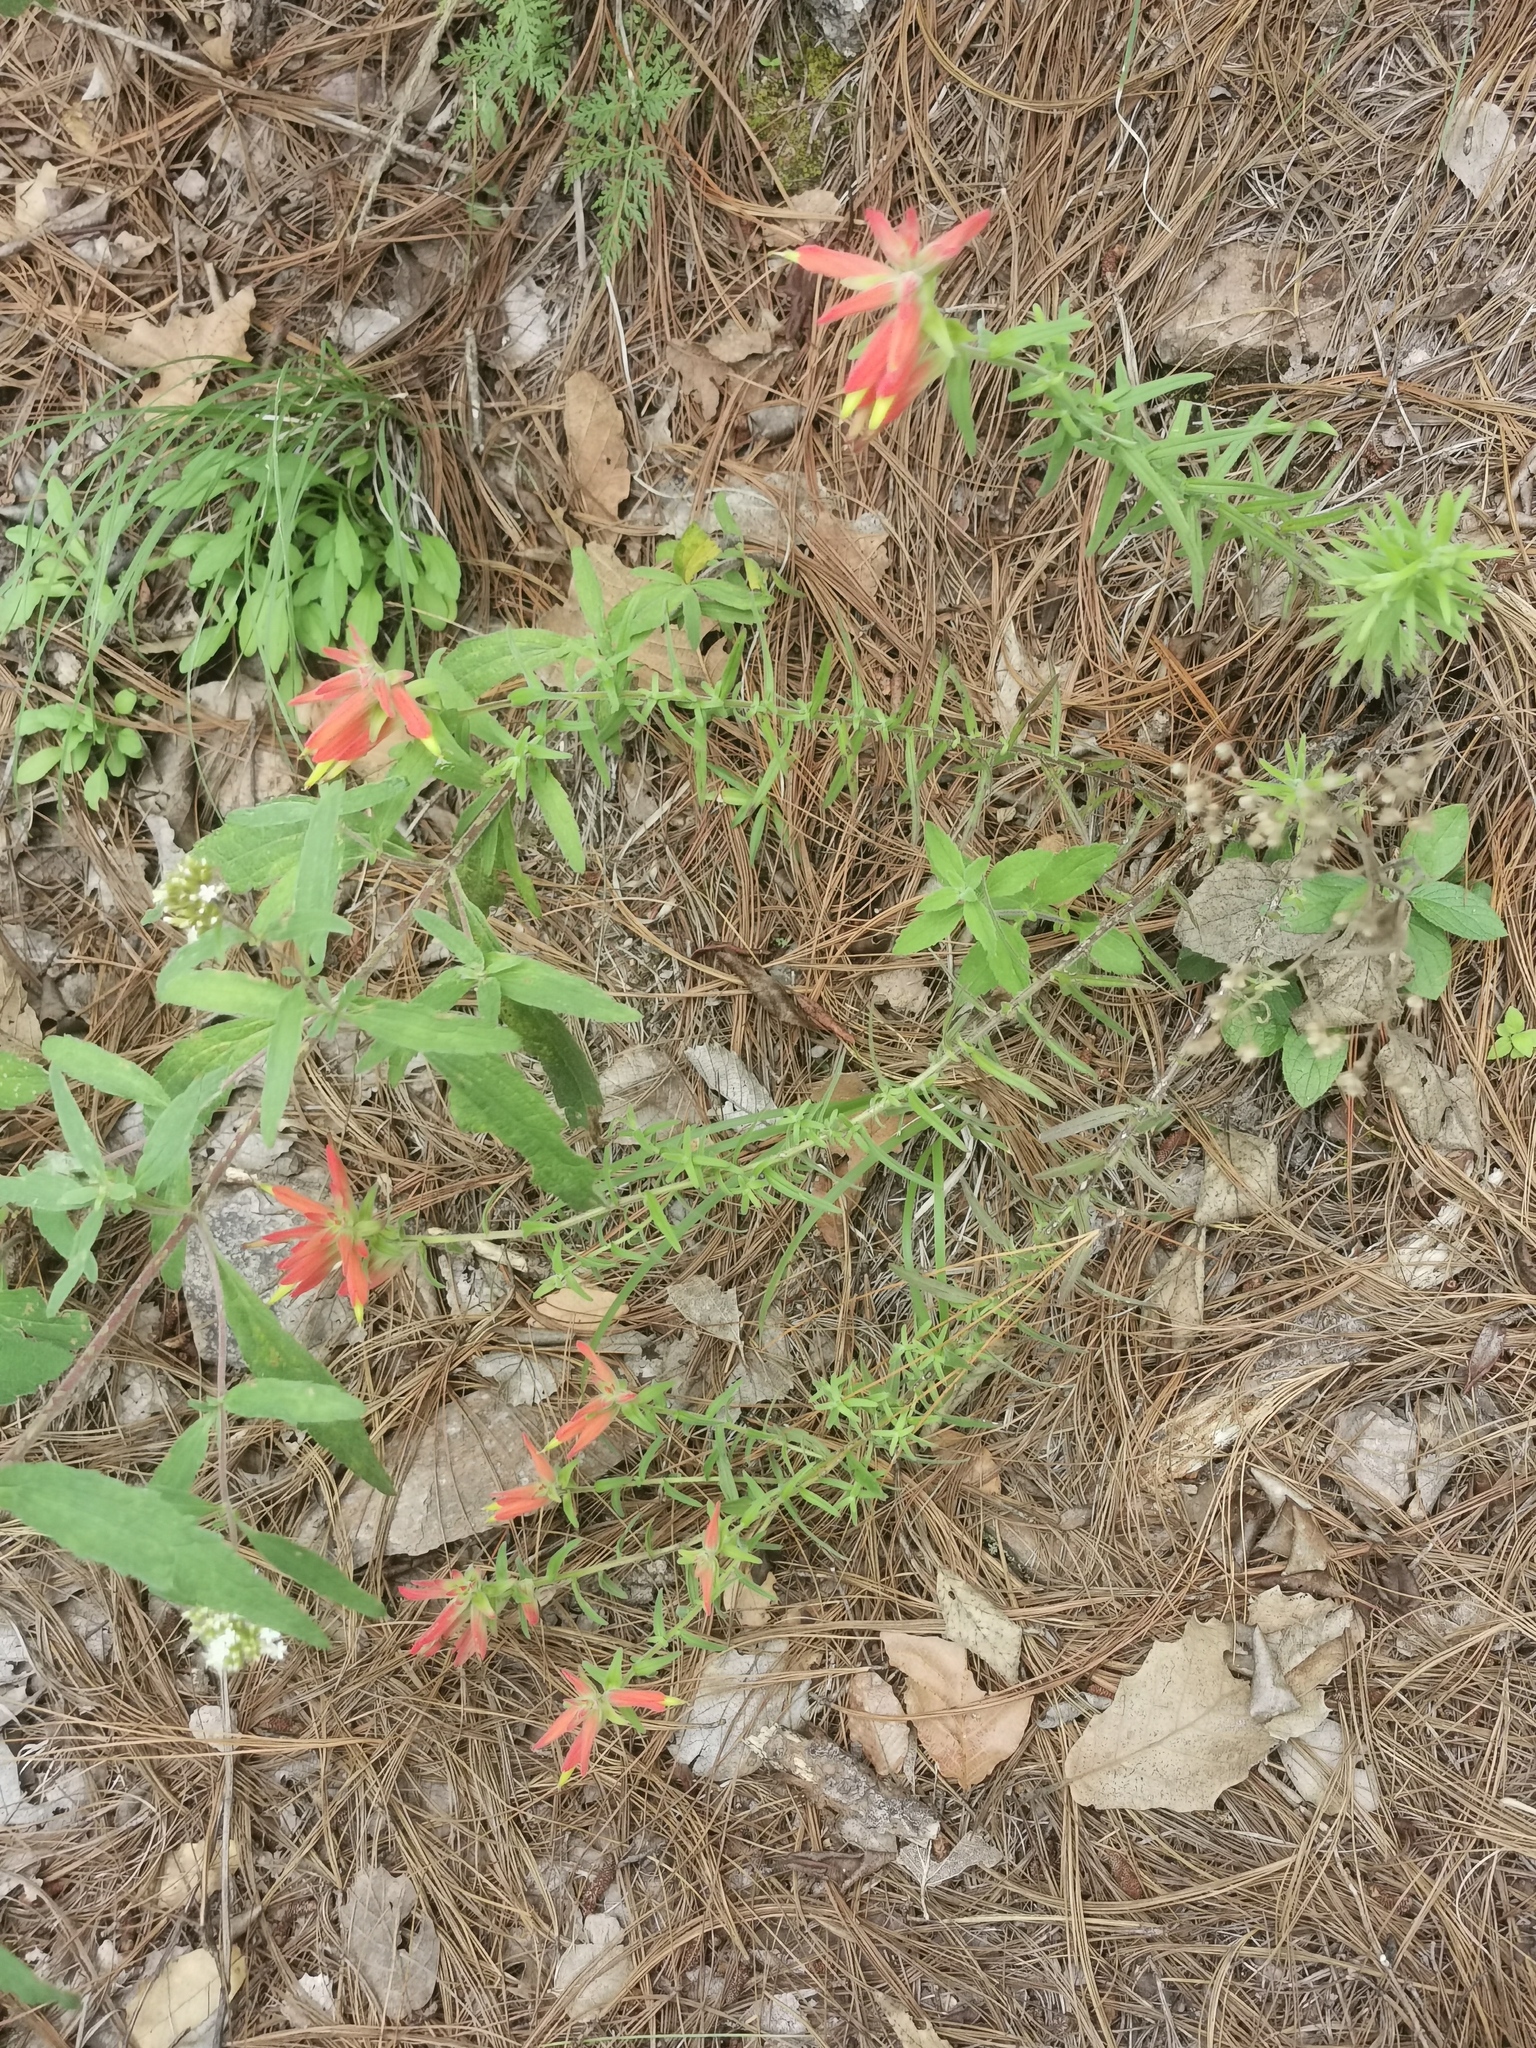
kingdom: Plantae
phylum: Tracheophyta
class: Magnoliopsida
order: Lamiales
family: Orobanchaceae
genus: Castilleja
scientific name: Castilleja tenuiflora
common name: Santa catalina indian paintbrush
